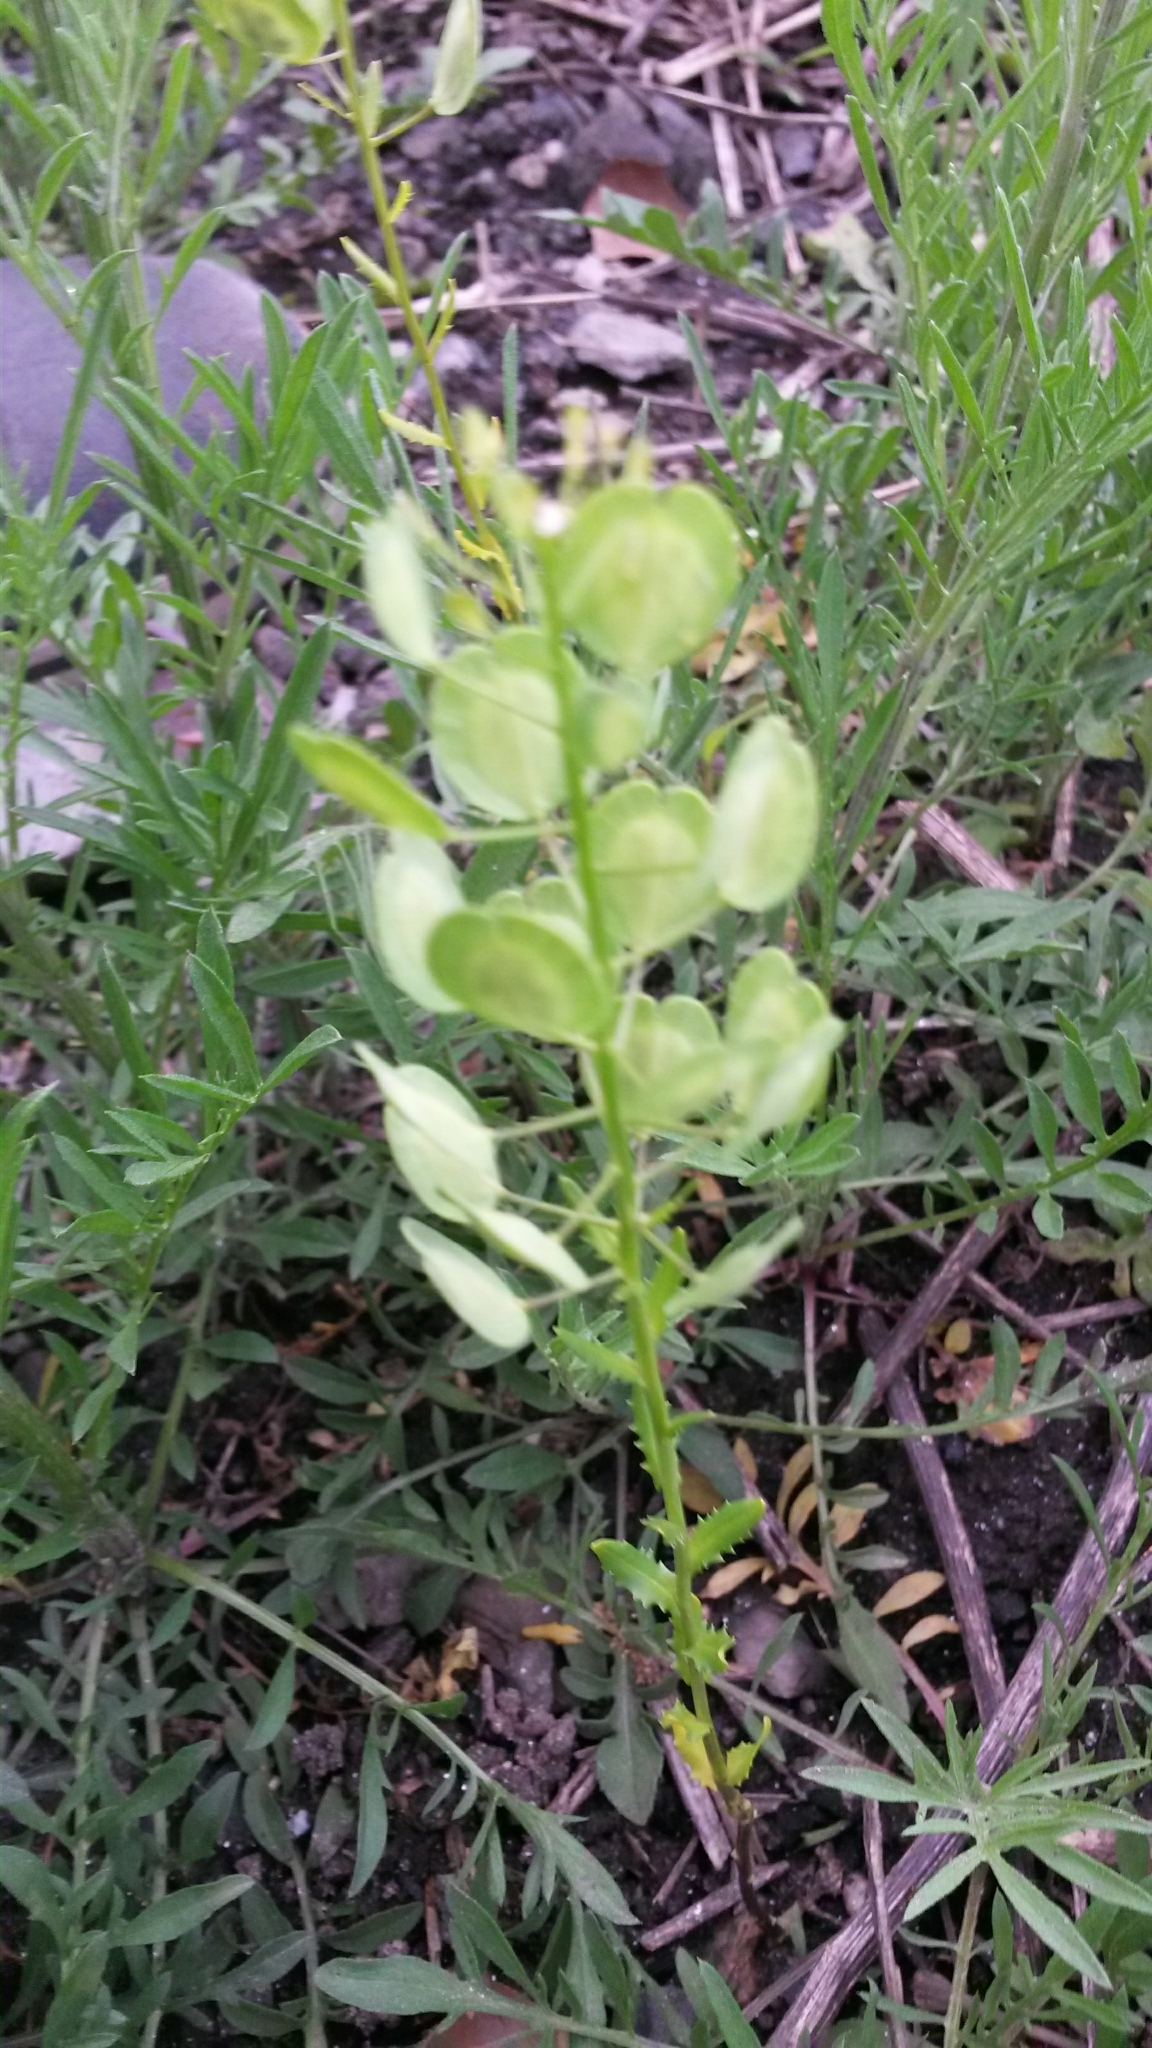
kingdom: Plantae
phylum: Tracheophyta
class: Magnoliopsida
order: Brassicales
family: Brassicaceae
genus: Thlaspi
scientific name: Thlaspi arvense
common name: Field pennycress
